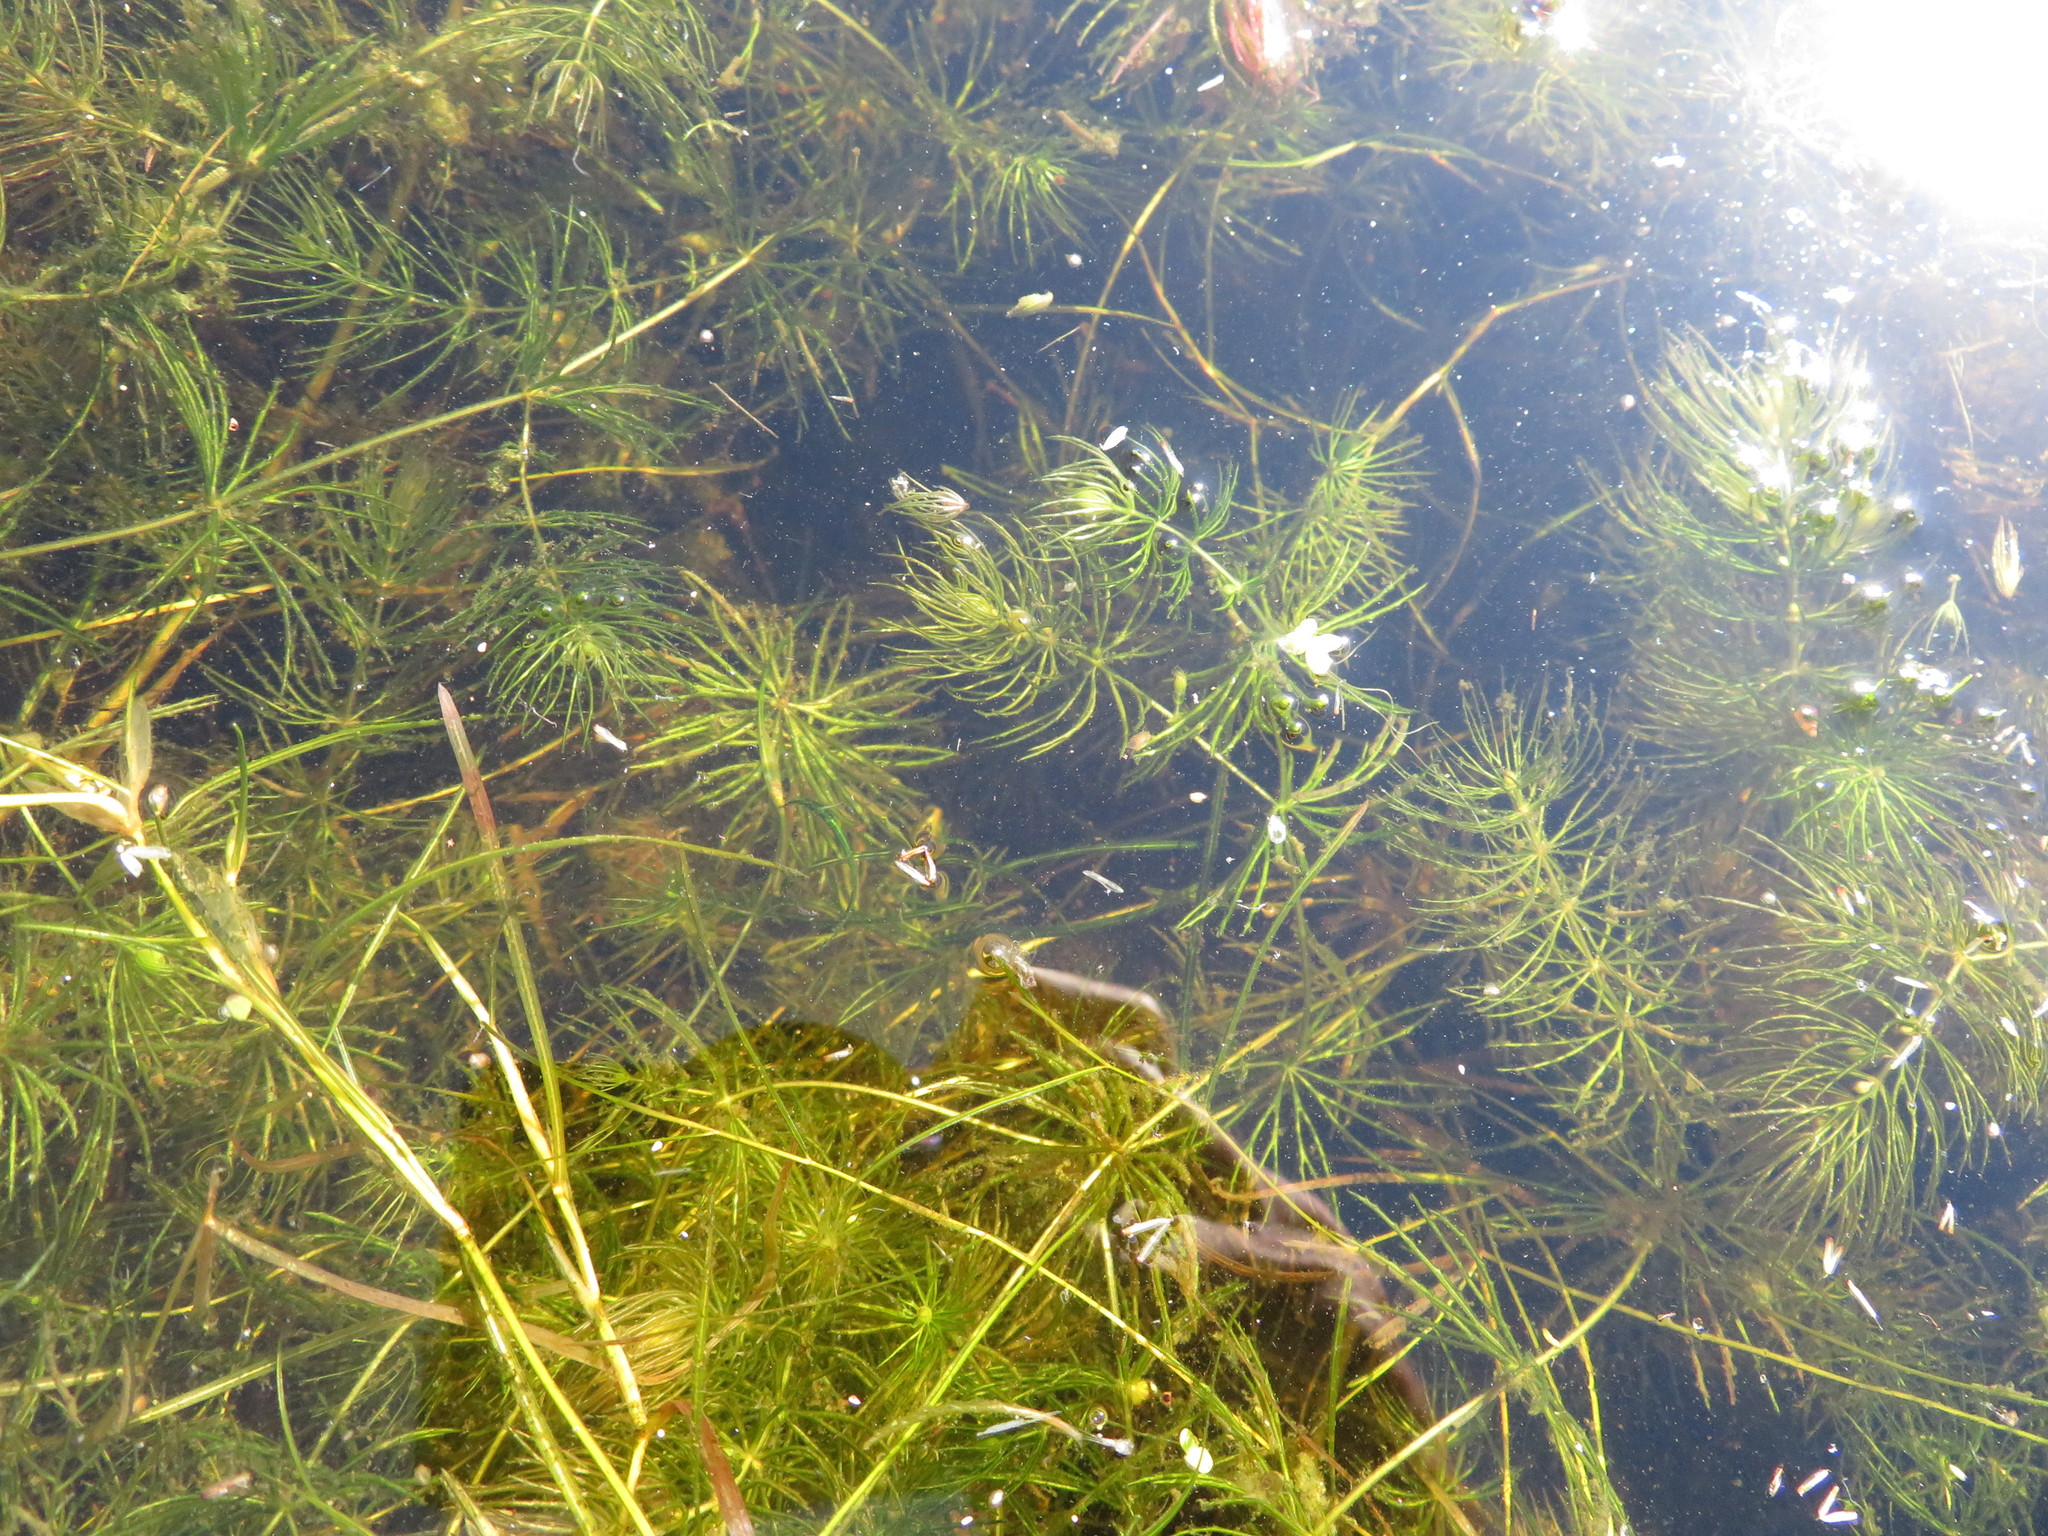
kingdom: Plantae
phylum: Tracheophyta
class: Magnoliopsida
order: Ceratophyllales
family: Ceratophyllaceae
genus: Ceratophyllum
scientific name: Ceratophyllum demersum
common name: Rigid hornwort
